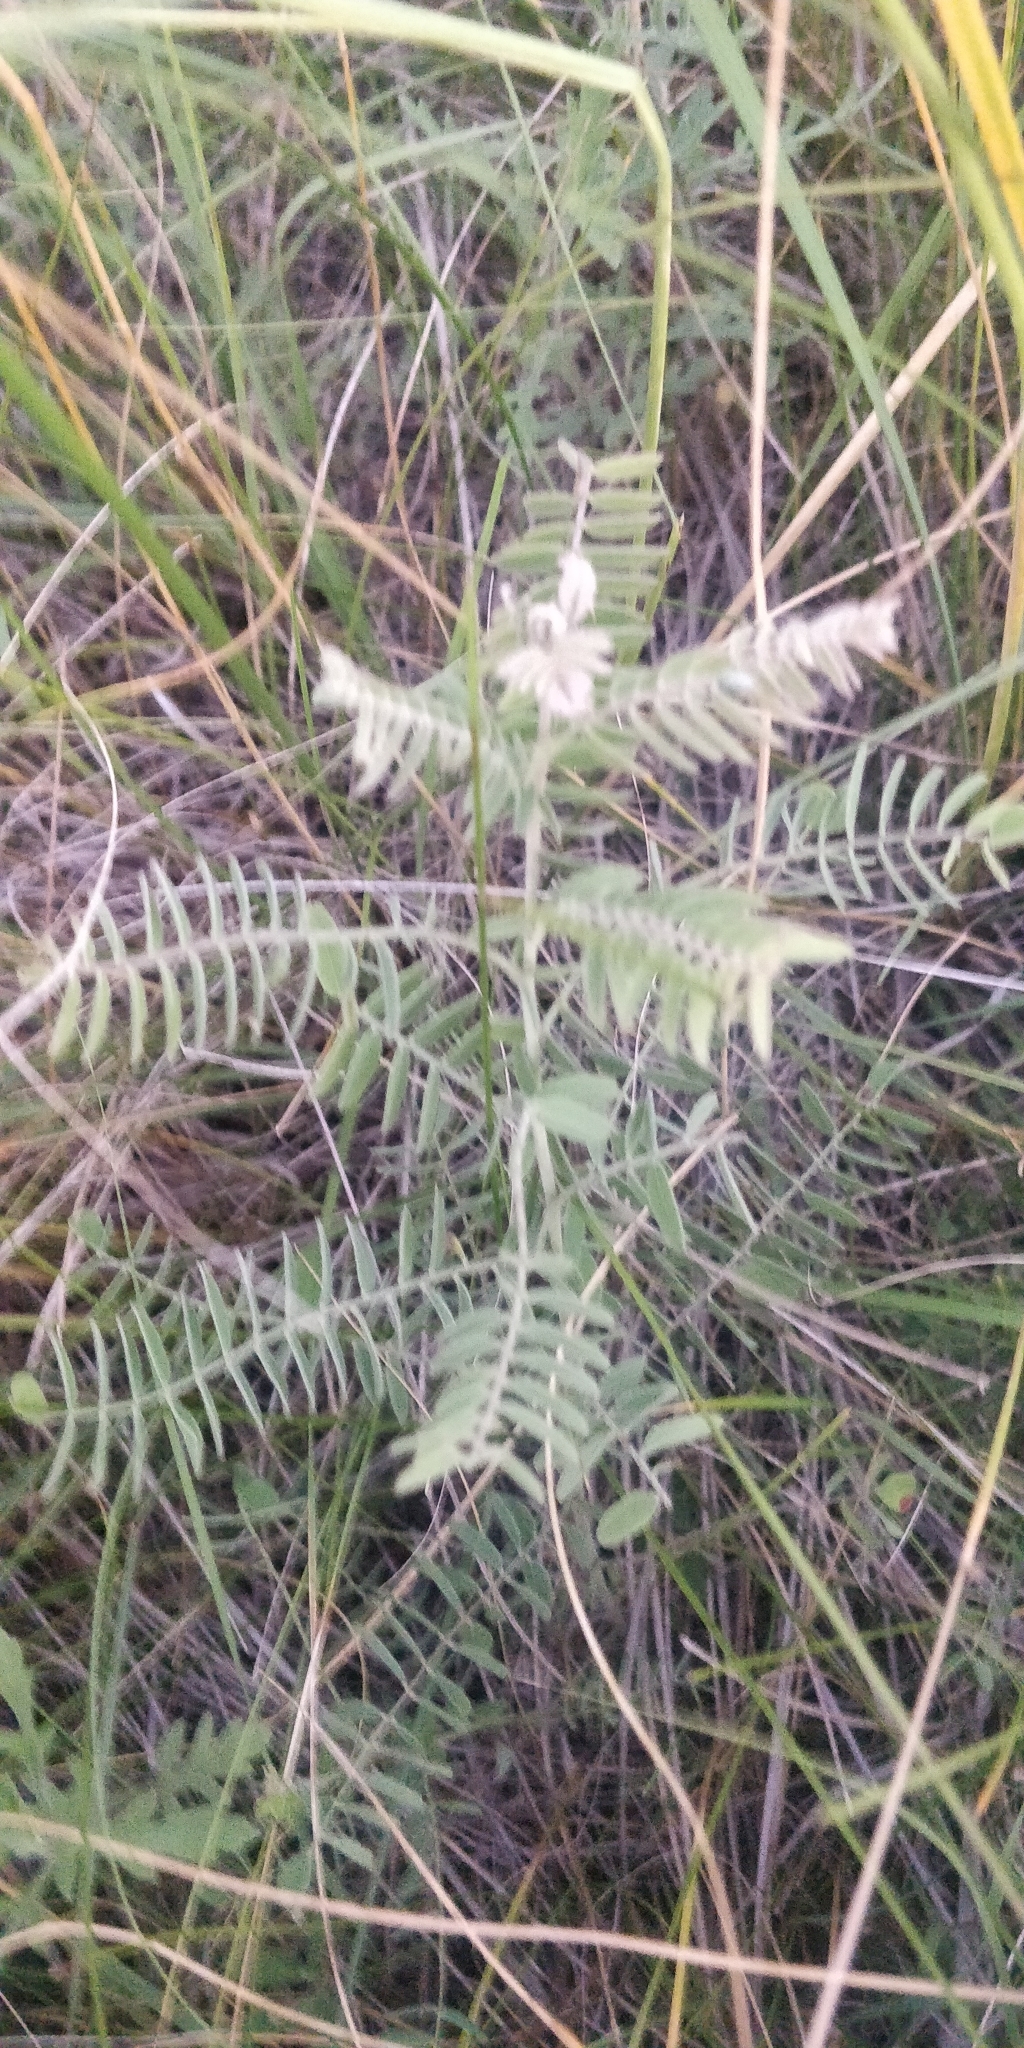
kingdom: Plantae
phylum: Tracheophyta
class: Magnoliopsida
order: Fabales
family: Fabaceae
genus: Amorpha
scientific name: Amorpha canescens
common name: Leadplant
